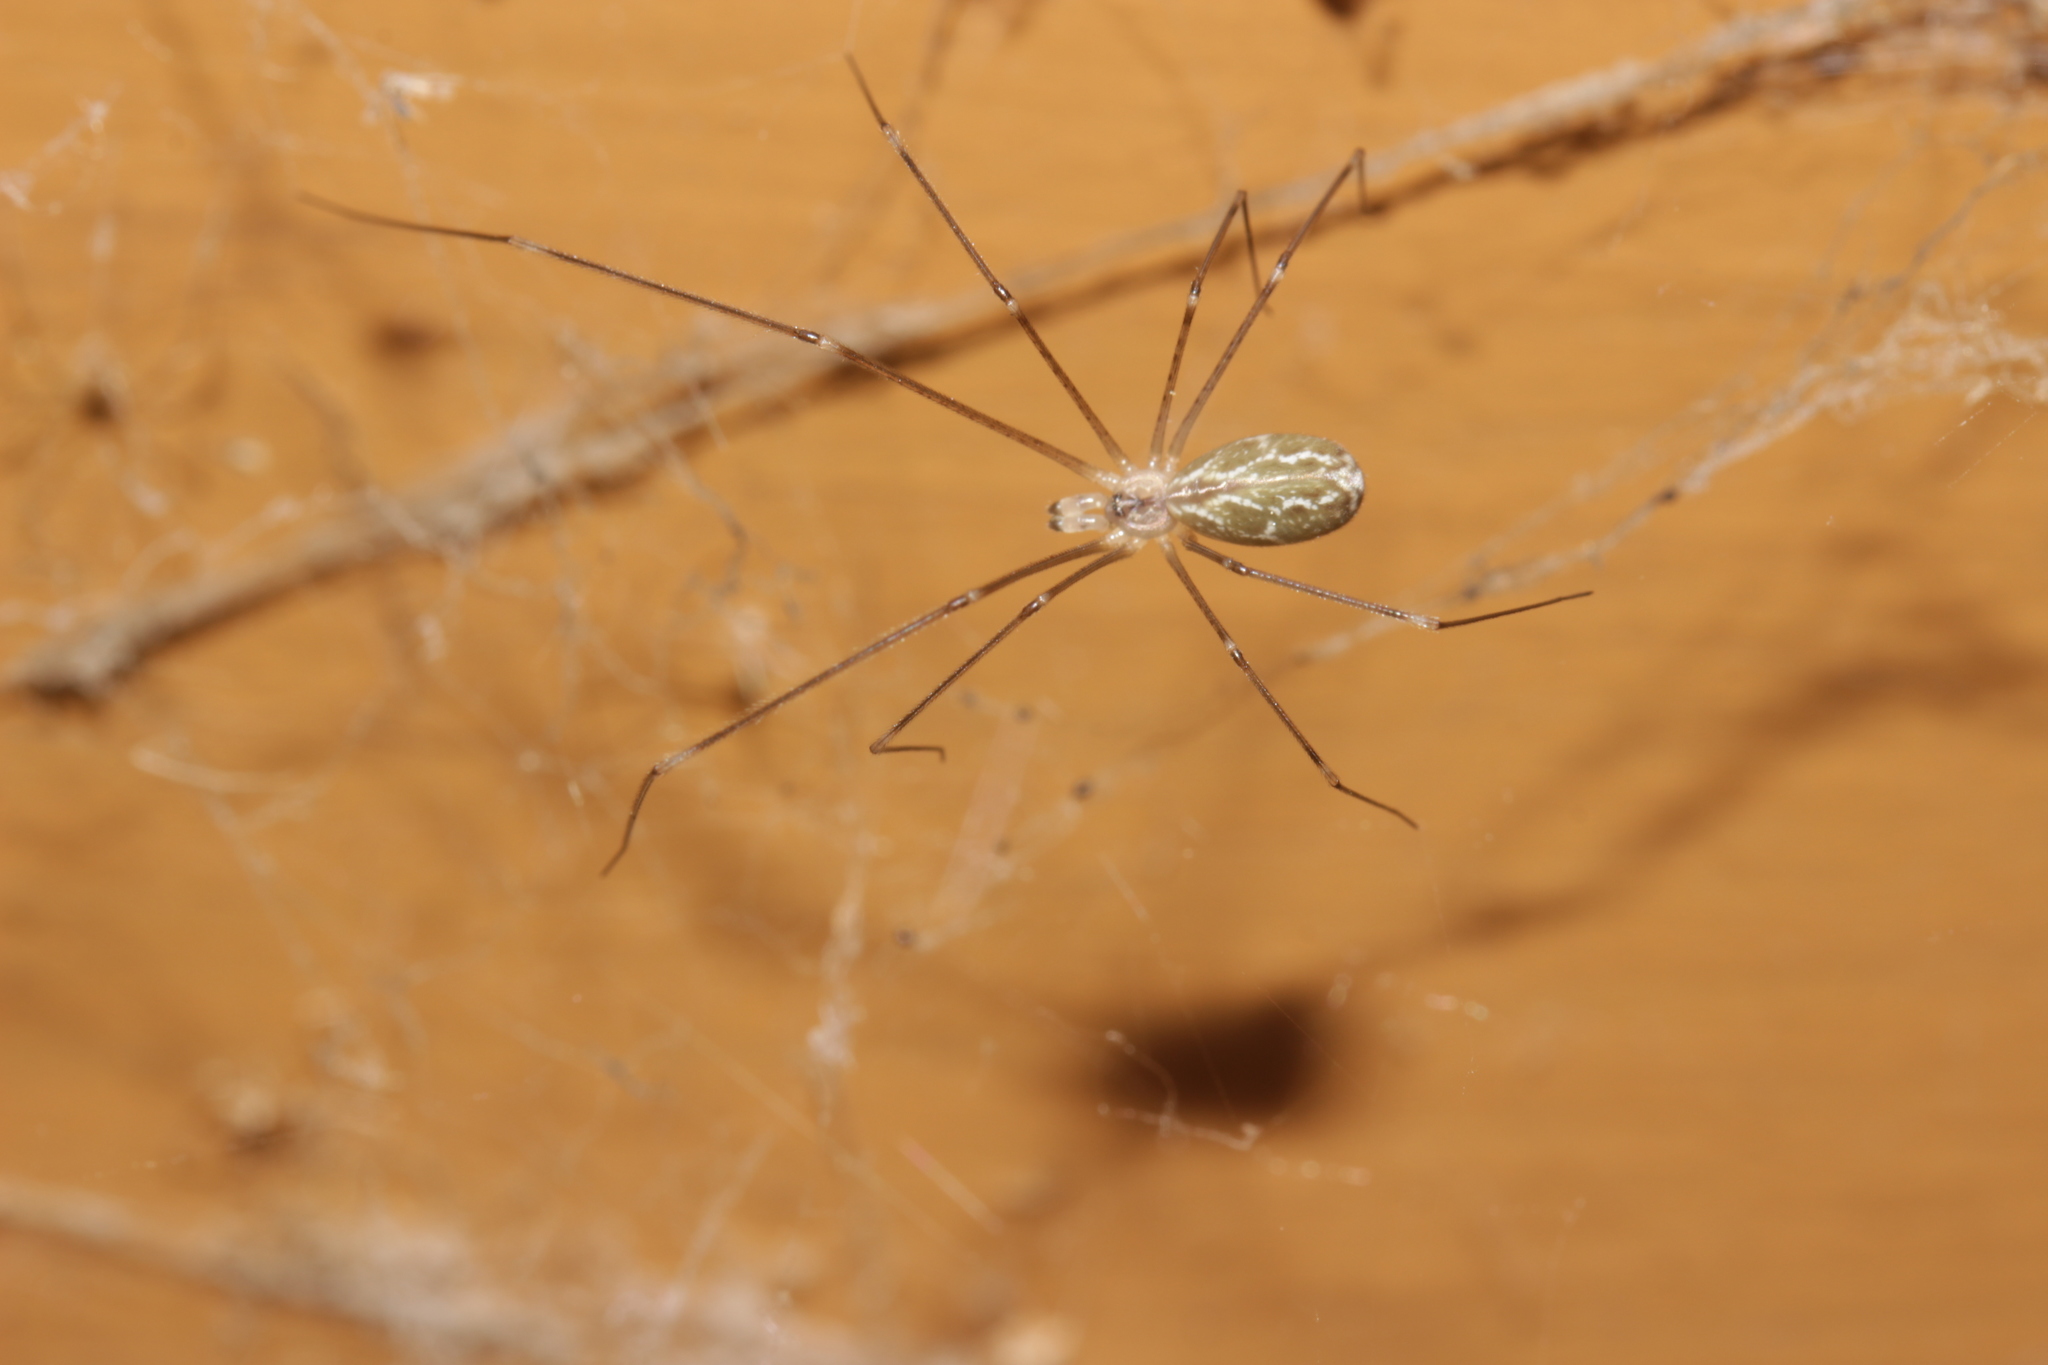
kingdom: Animalia
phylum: Arthropoda
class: Arachnida
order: Araneae
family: Pholcidae
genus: Holocnemus
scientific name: Holocnemus pluchei
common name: Marbled cellar spider
